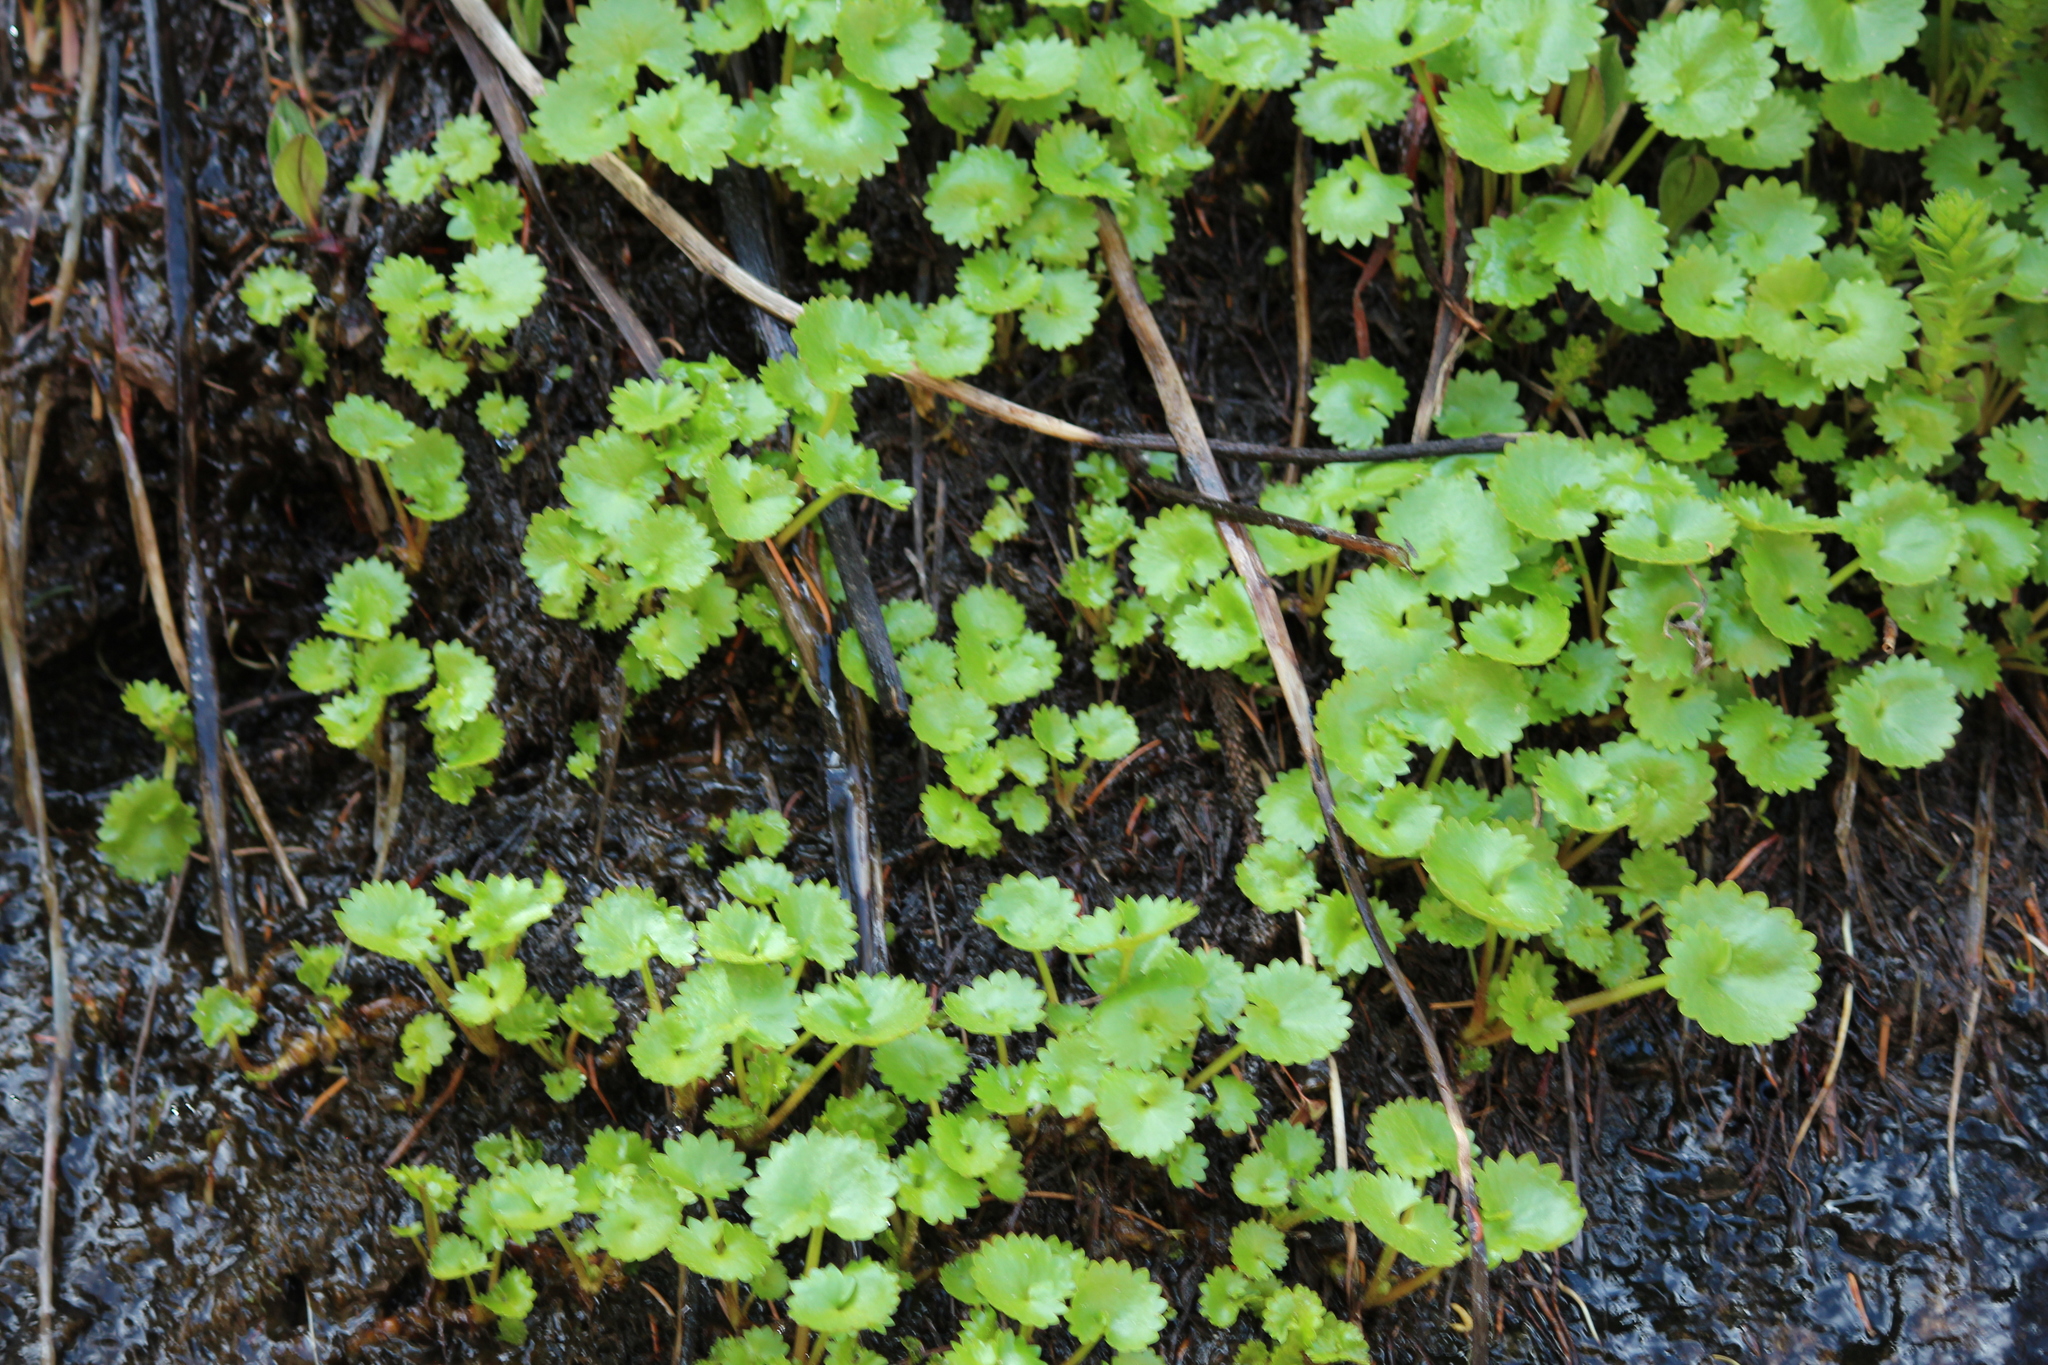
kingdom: Plantae
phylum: Tracheophyta
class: Magnoliopsida
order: Saxifragales
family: Saxifragaceae
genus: Micranthes
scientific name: Micranthes odontoloma
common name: Brook saxifrage
